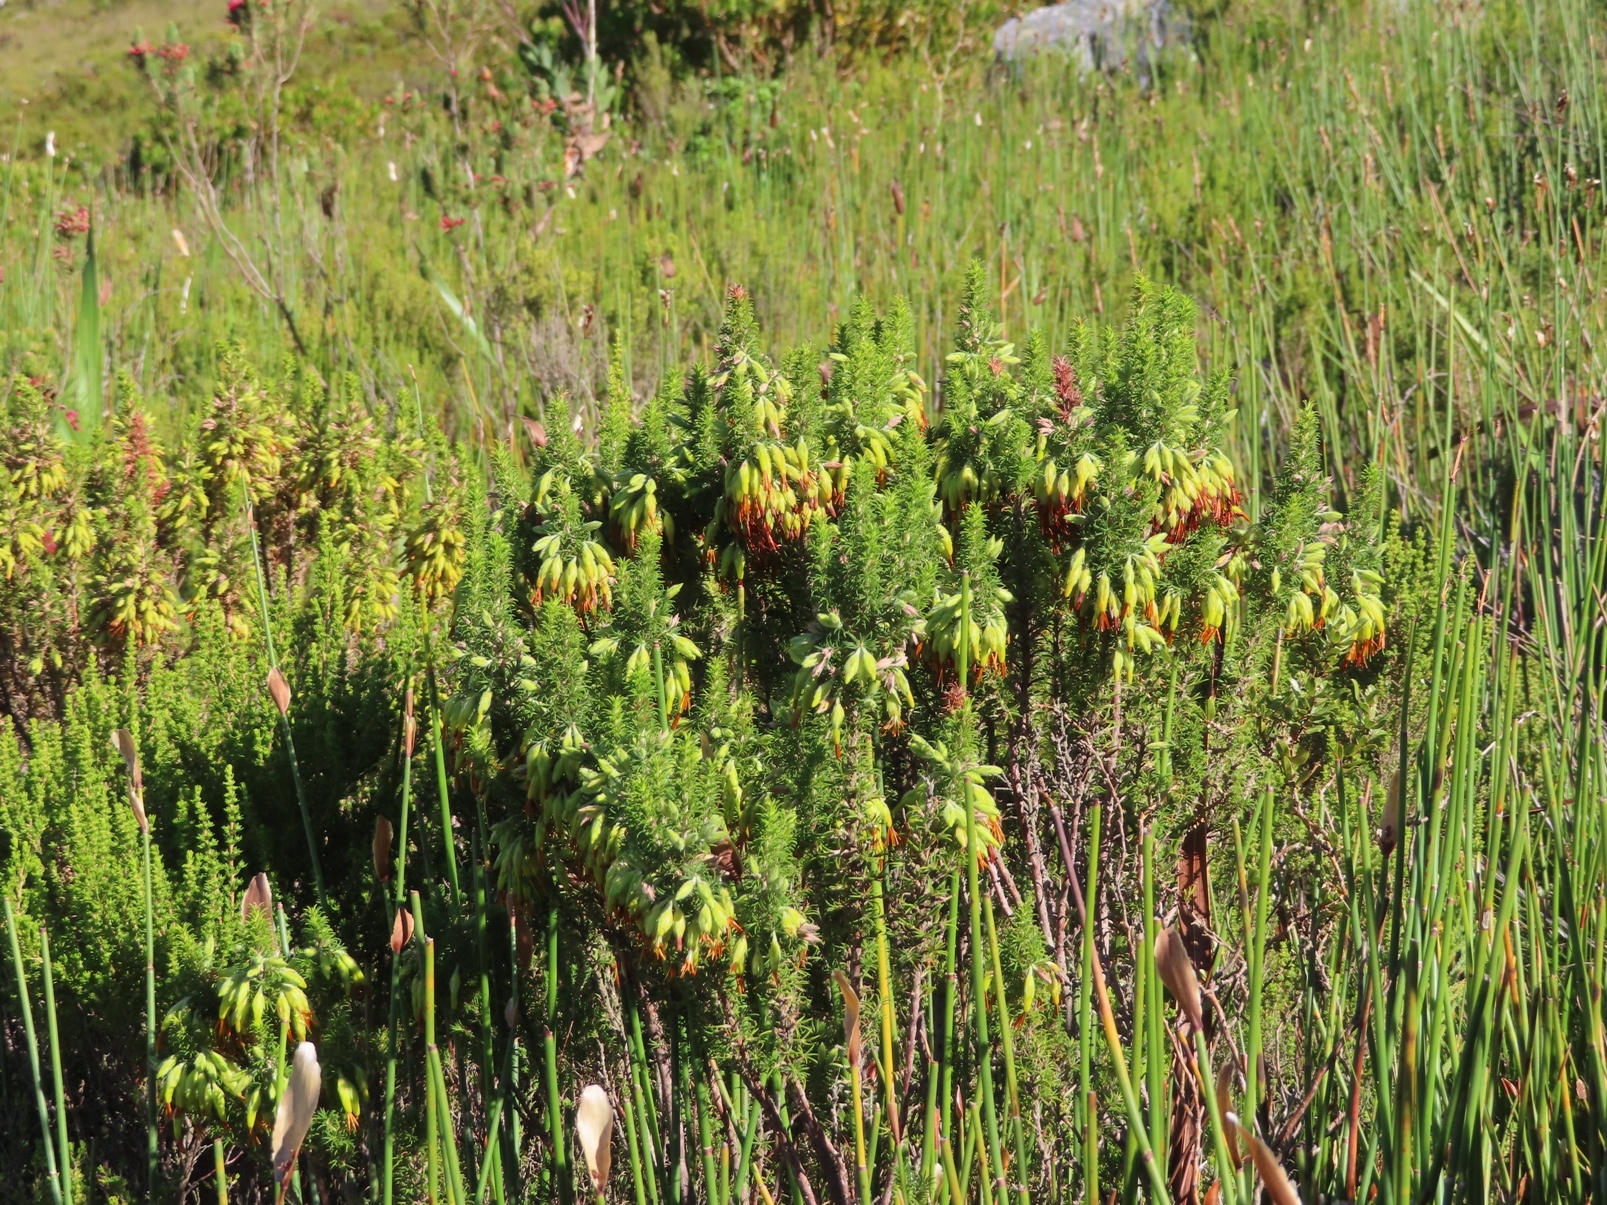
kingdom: Plantae
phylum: Tracheophyta
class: Magnoliopsida
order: Ericales
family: Ericaceae
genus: Erica
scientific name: Erica coccinea
